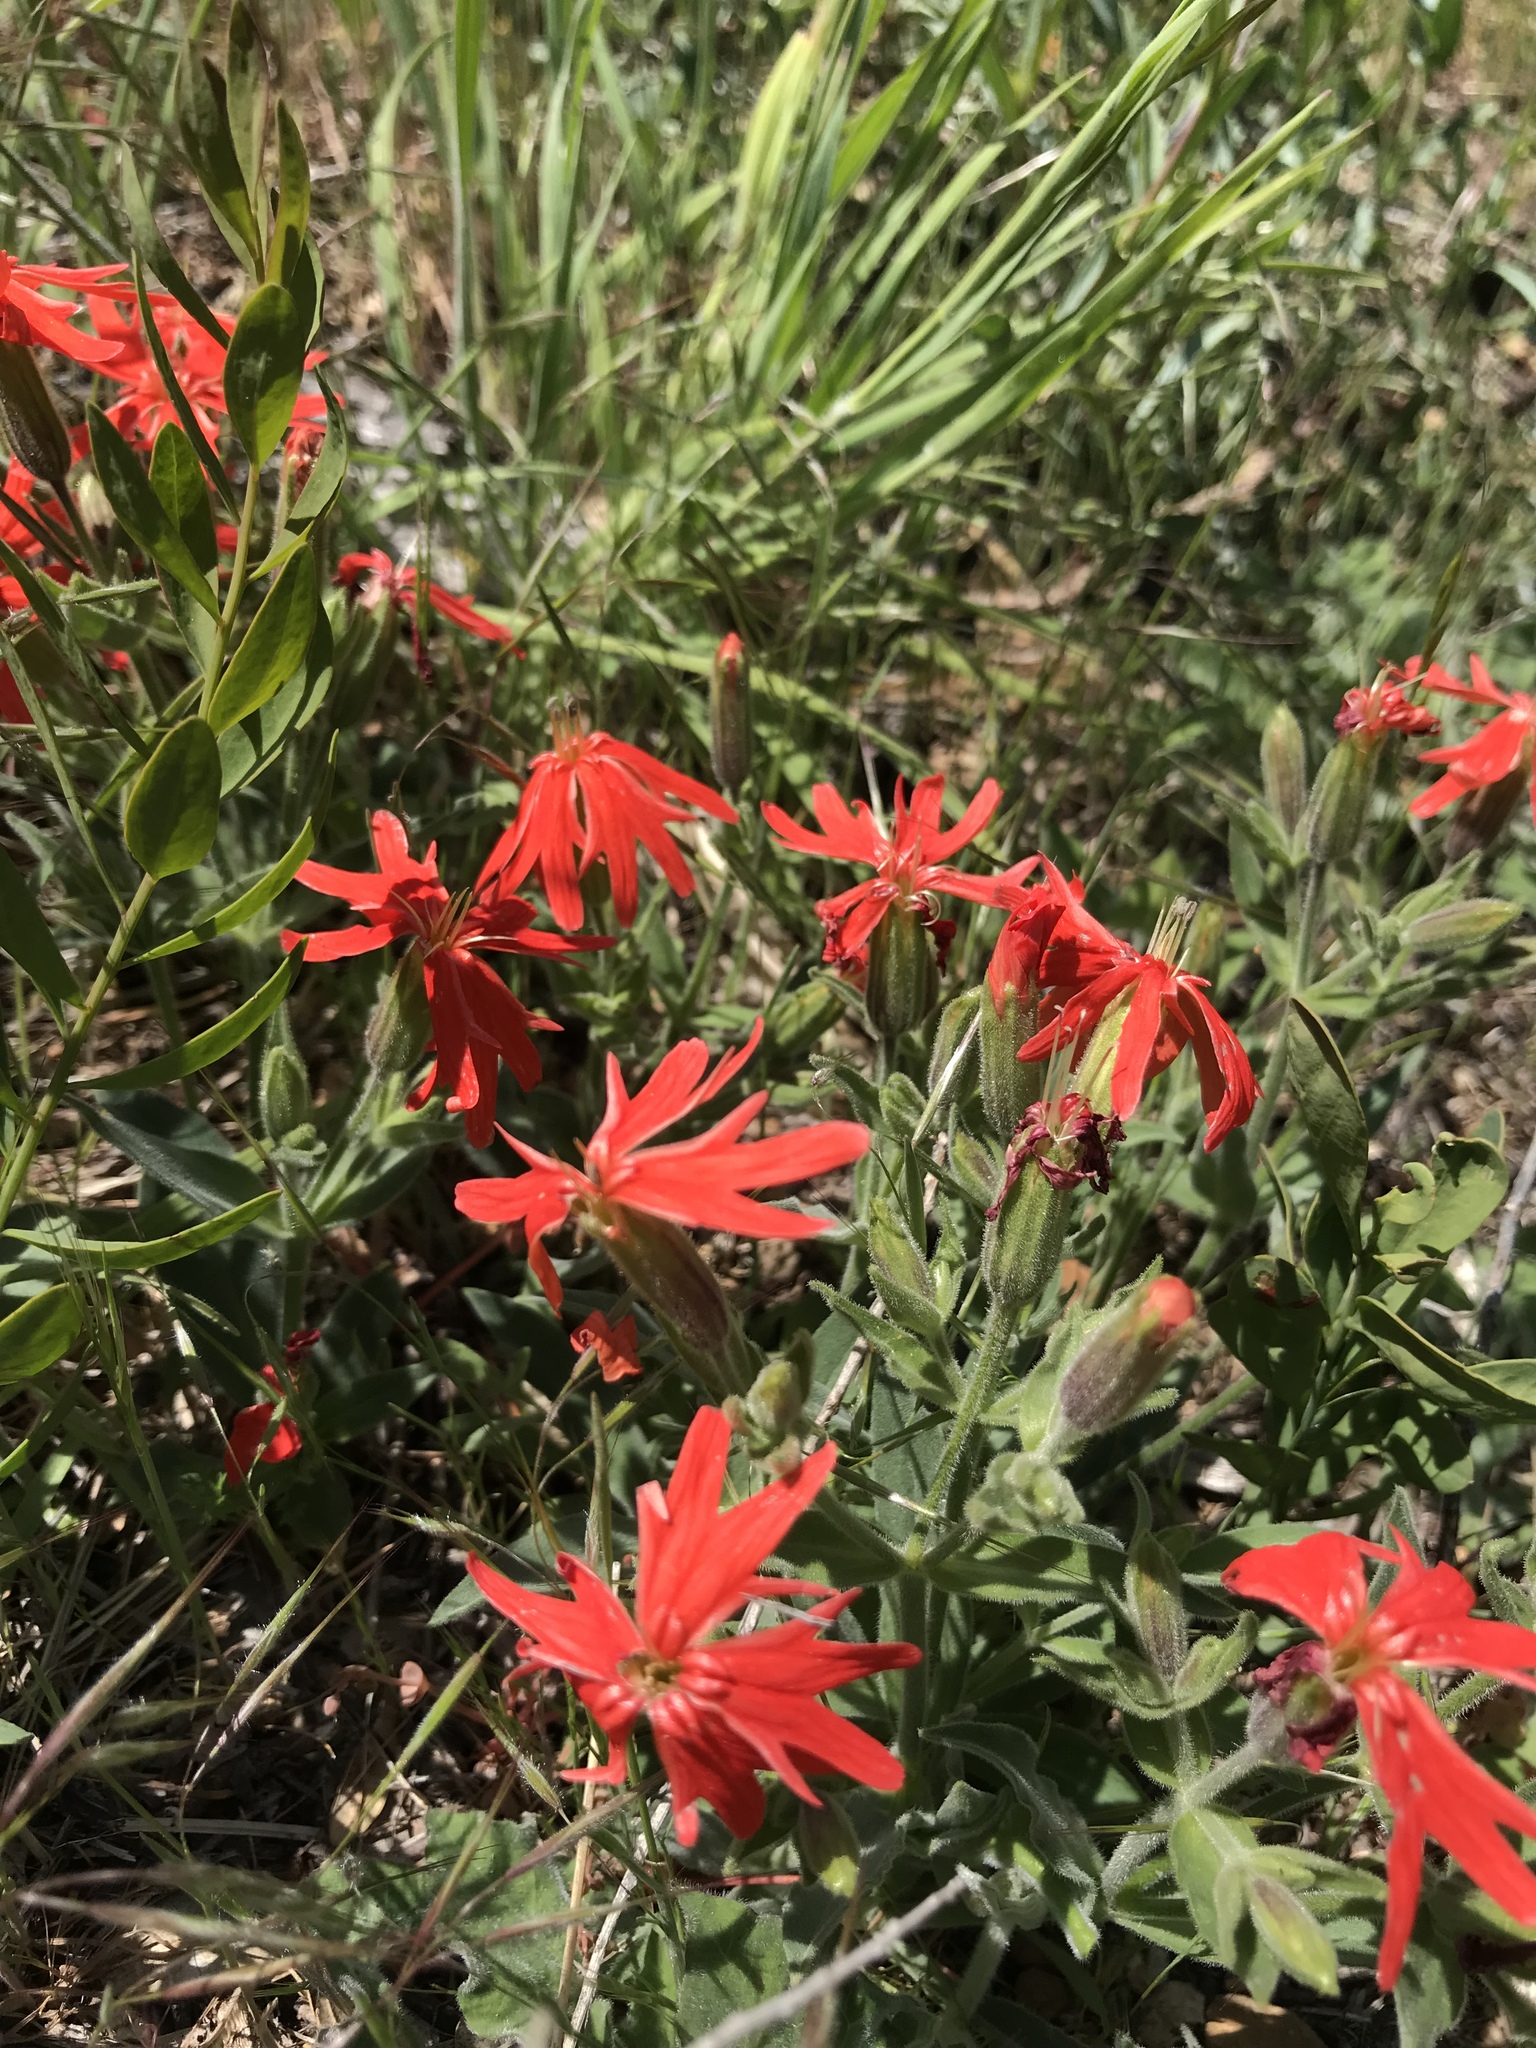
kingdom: Plantae
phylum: Tracheophyta
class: Magnoliopsida
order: Caryophyllales
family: Caryophyllaceae
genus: Silene
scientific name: Silene laciniata
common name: Indian-pink
